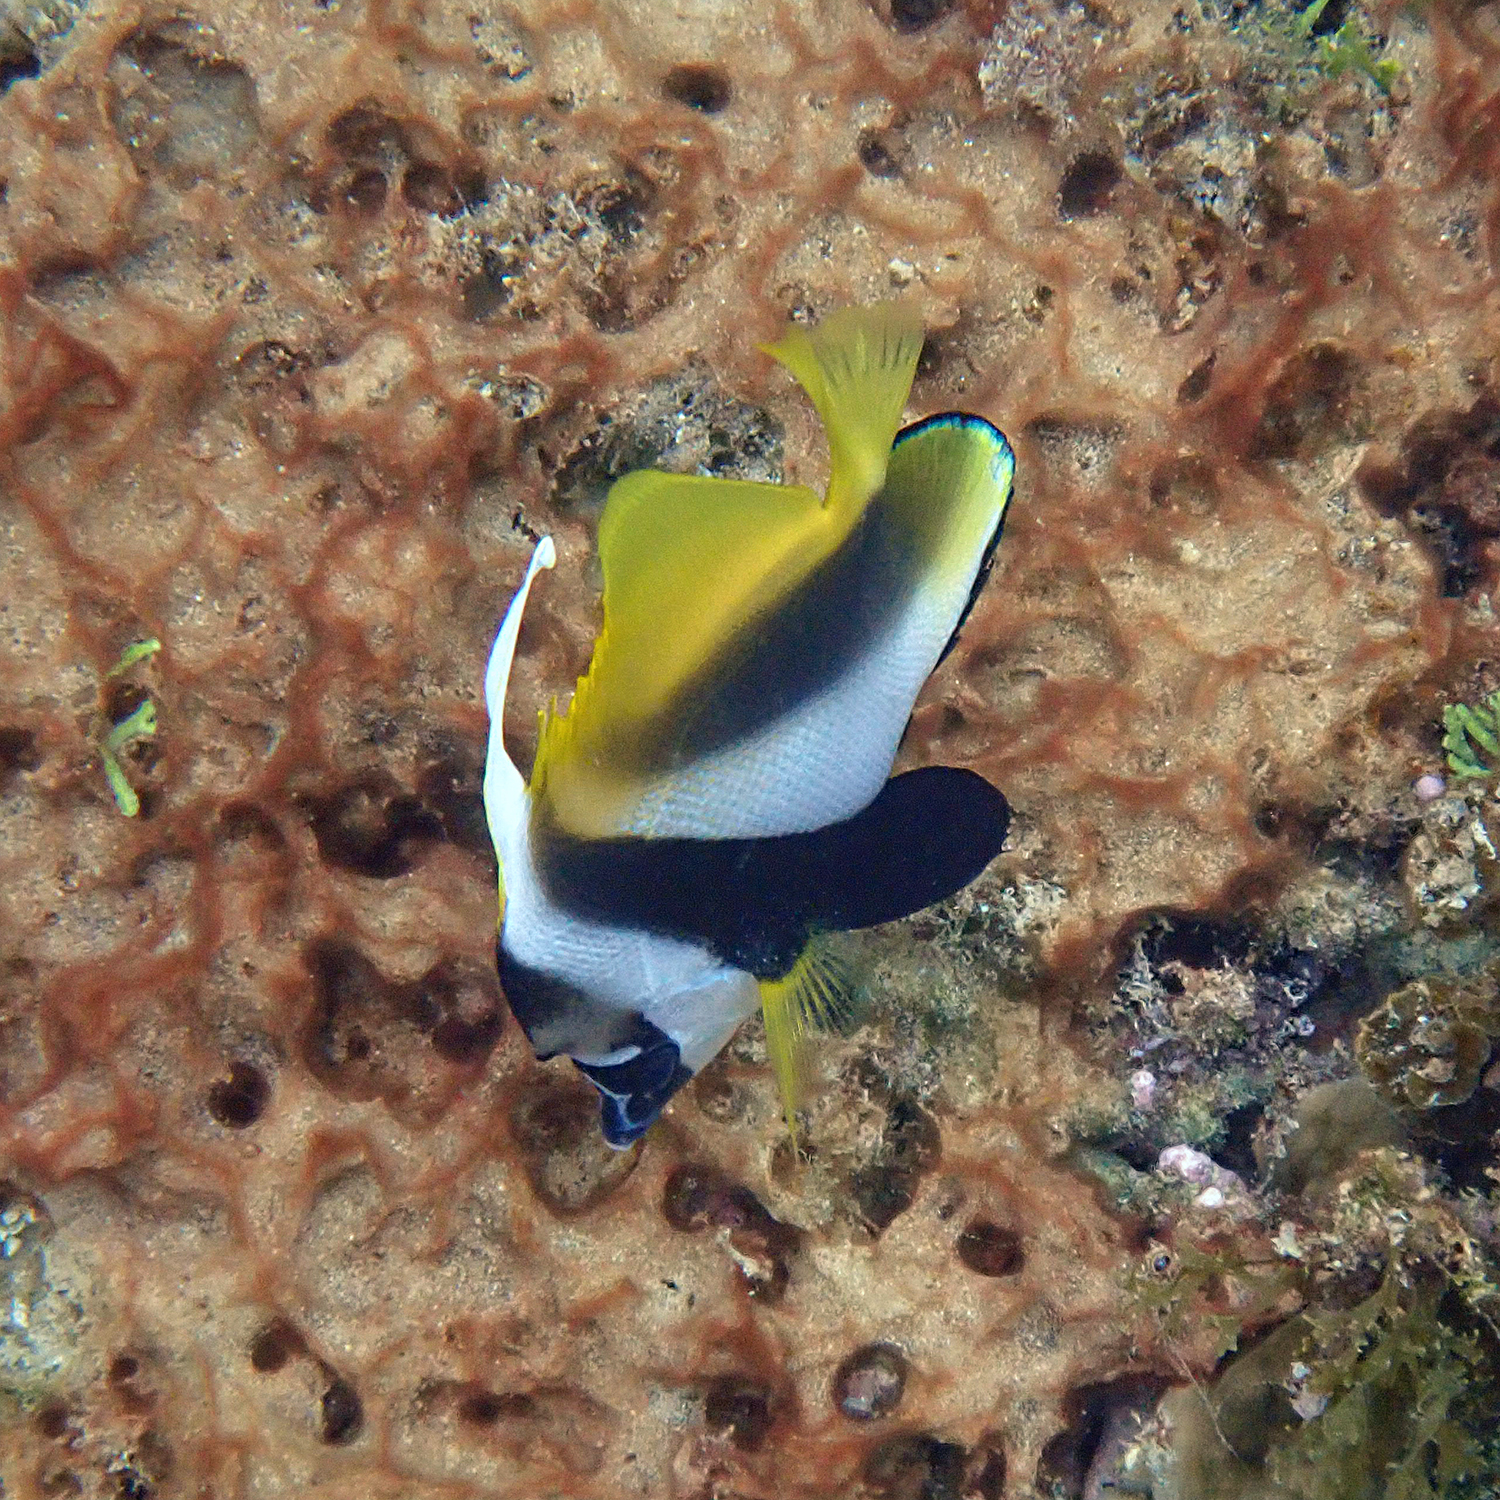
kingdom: Animalia
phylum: Chordata
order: Perciformes
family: Chaetodontidae
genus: Heniochus
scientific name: Heniochus monoceros
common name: Masked bannerfish
